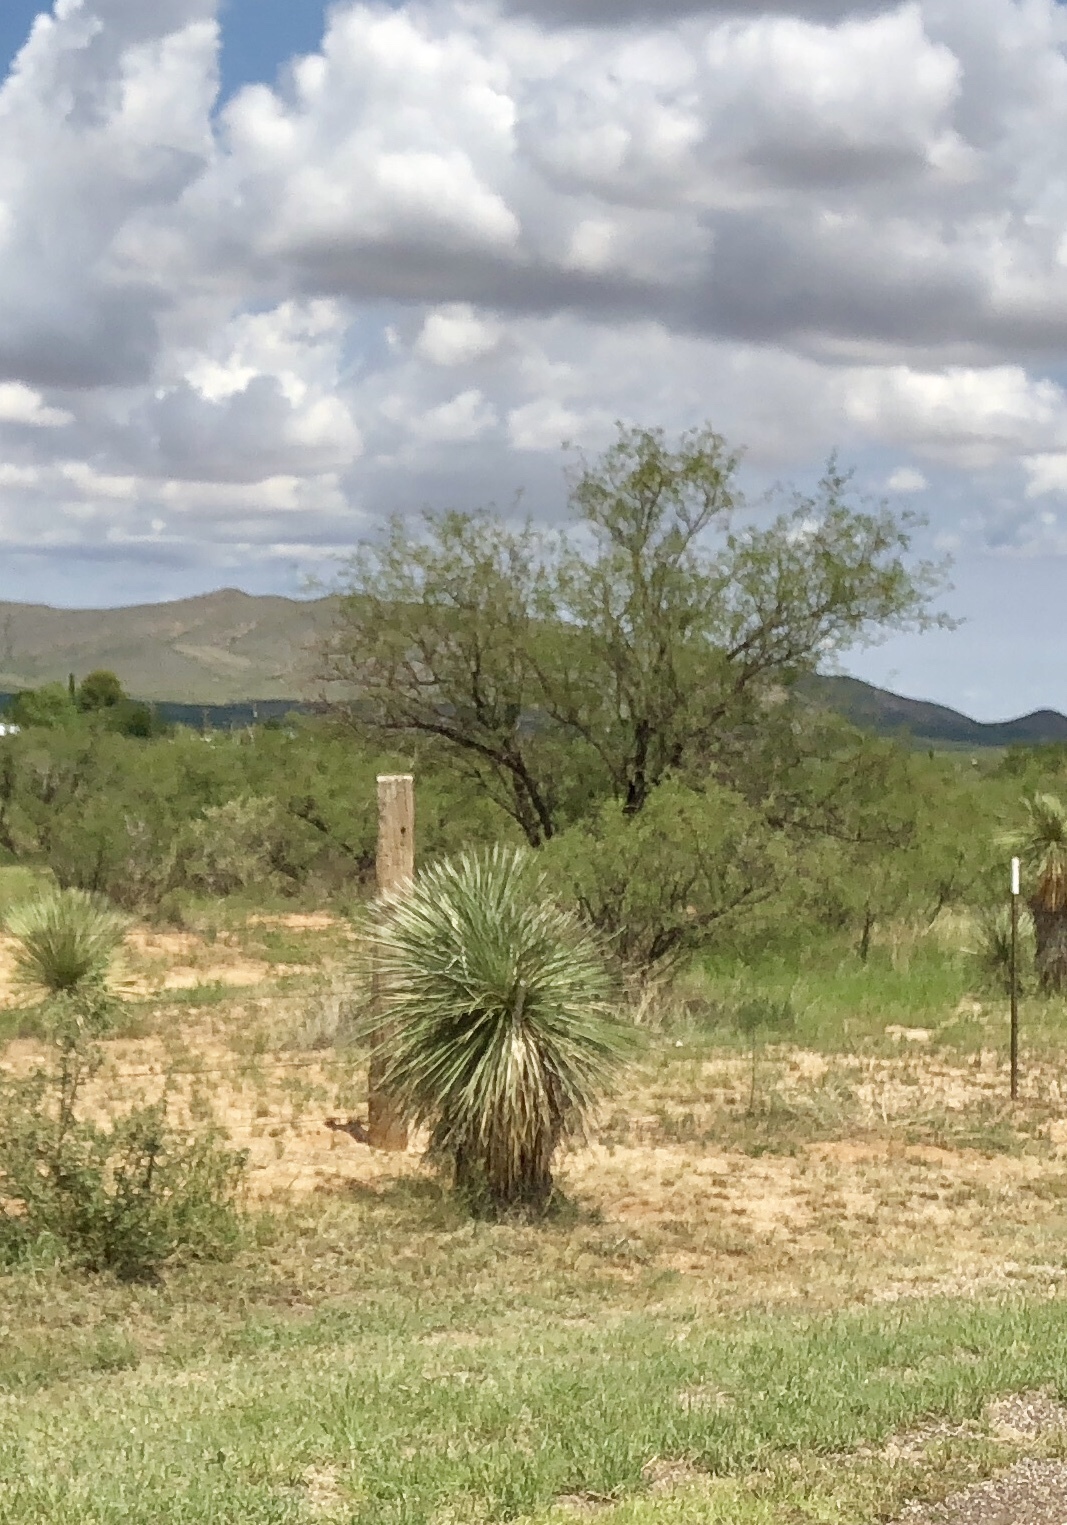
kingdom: Plantae
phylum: Tracheophyta
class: Liliopsida
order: Asparagales
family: Asparagaceae
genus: Yucca
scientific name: Yucca elata
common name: Palmella
